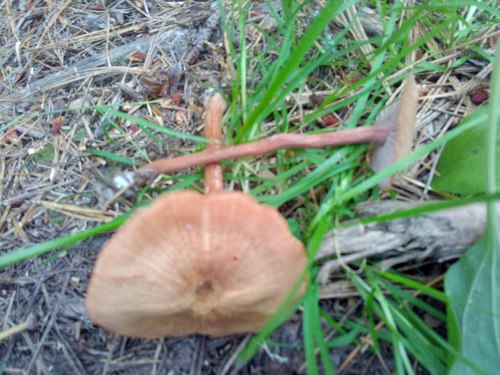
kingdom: Fungi
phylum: Basidiomycota
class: Agaricomycetes
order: Agaricales
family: Hydnangiaceae
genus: Laccaria
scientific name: Laccaria proxima
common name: Scurfy deceiver
